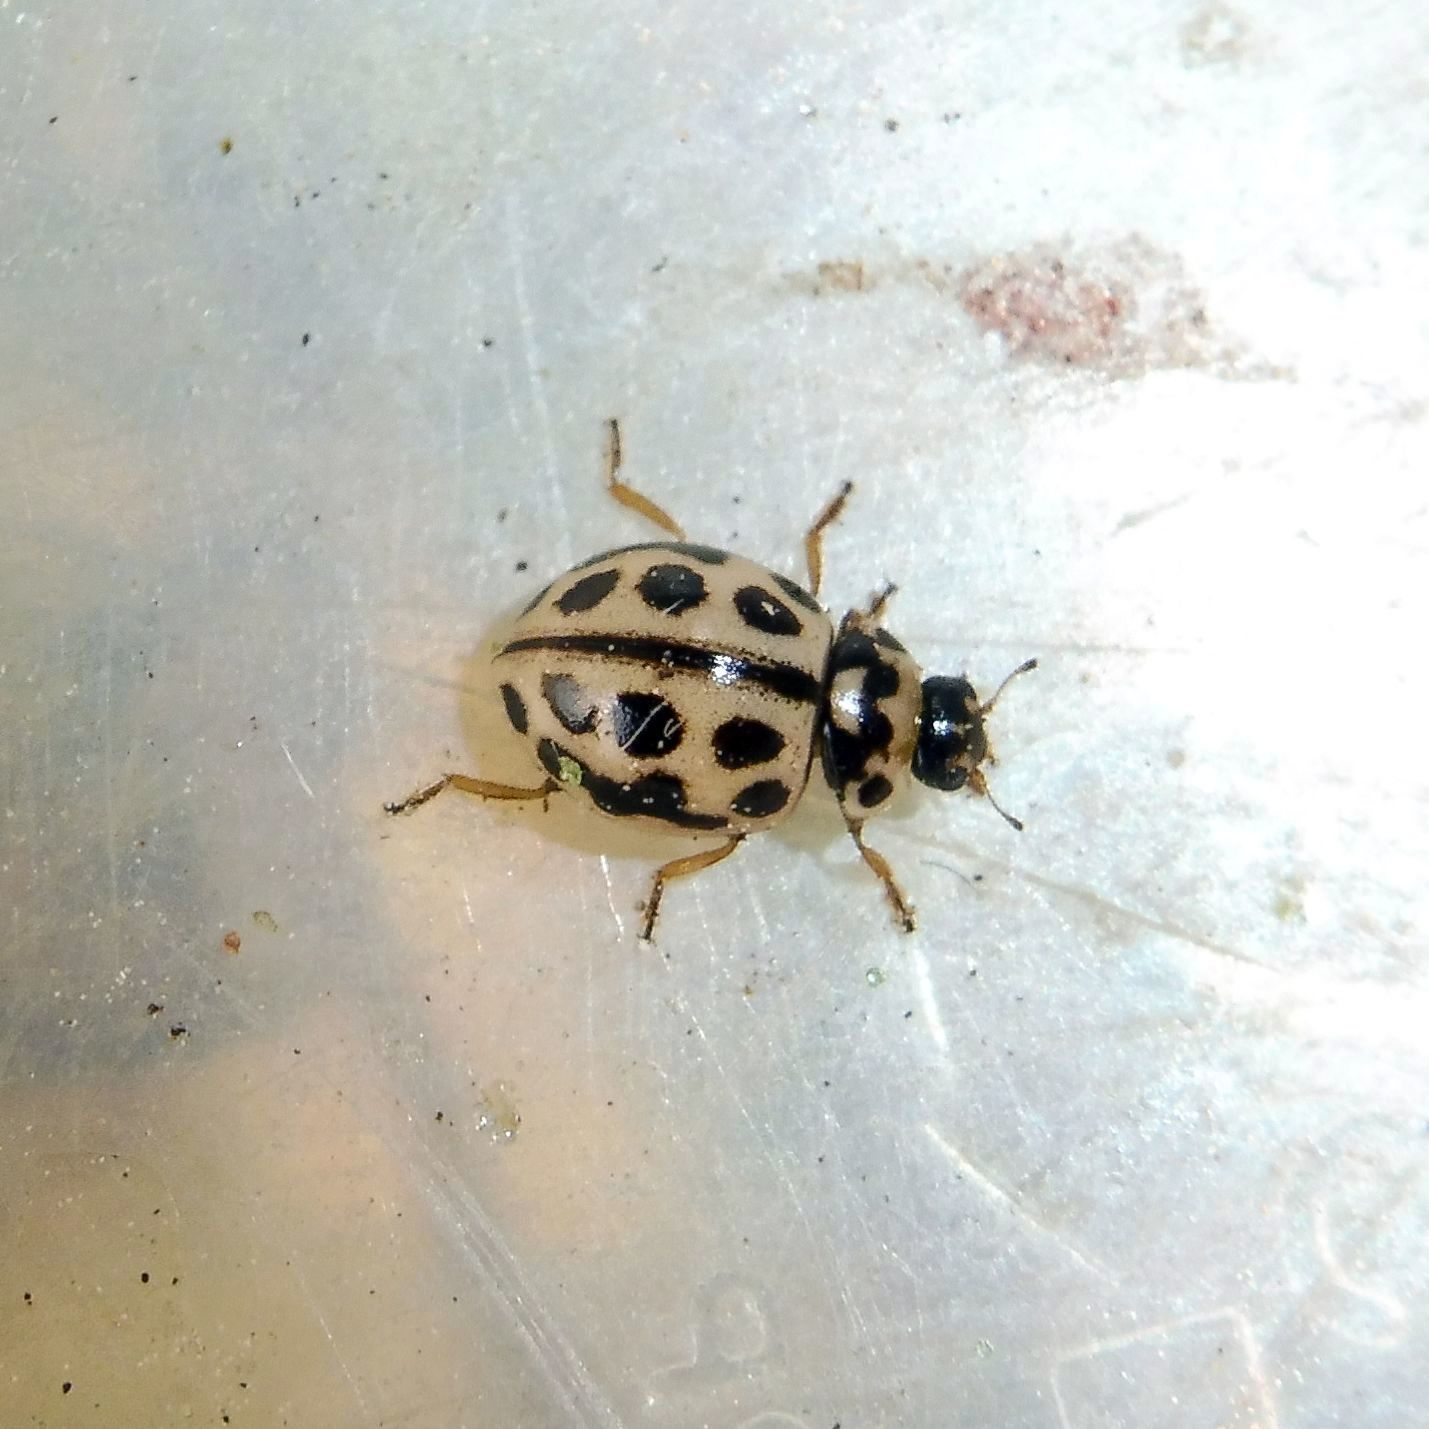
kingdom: Animalia
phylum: Arthropoda
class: Insecta
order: Coleoptera
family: Coccinellidae
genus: Tytthaspis
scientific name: Tytthaspis sedecimpunctata
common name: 16-spot ladybird
